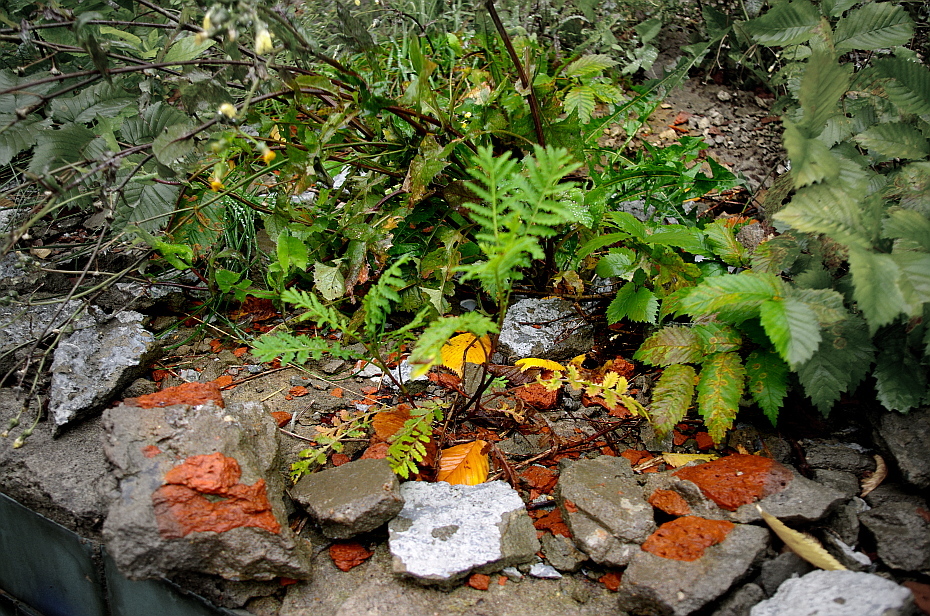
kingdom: Plantae
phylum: Tracheophyta
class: Magnoliopsida
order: Asterales
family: Asteraceae
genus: Tanacetum
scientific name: Tanacetum vulgare
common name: Common tansy
